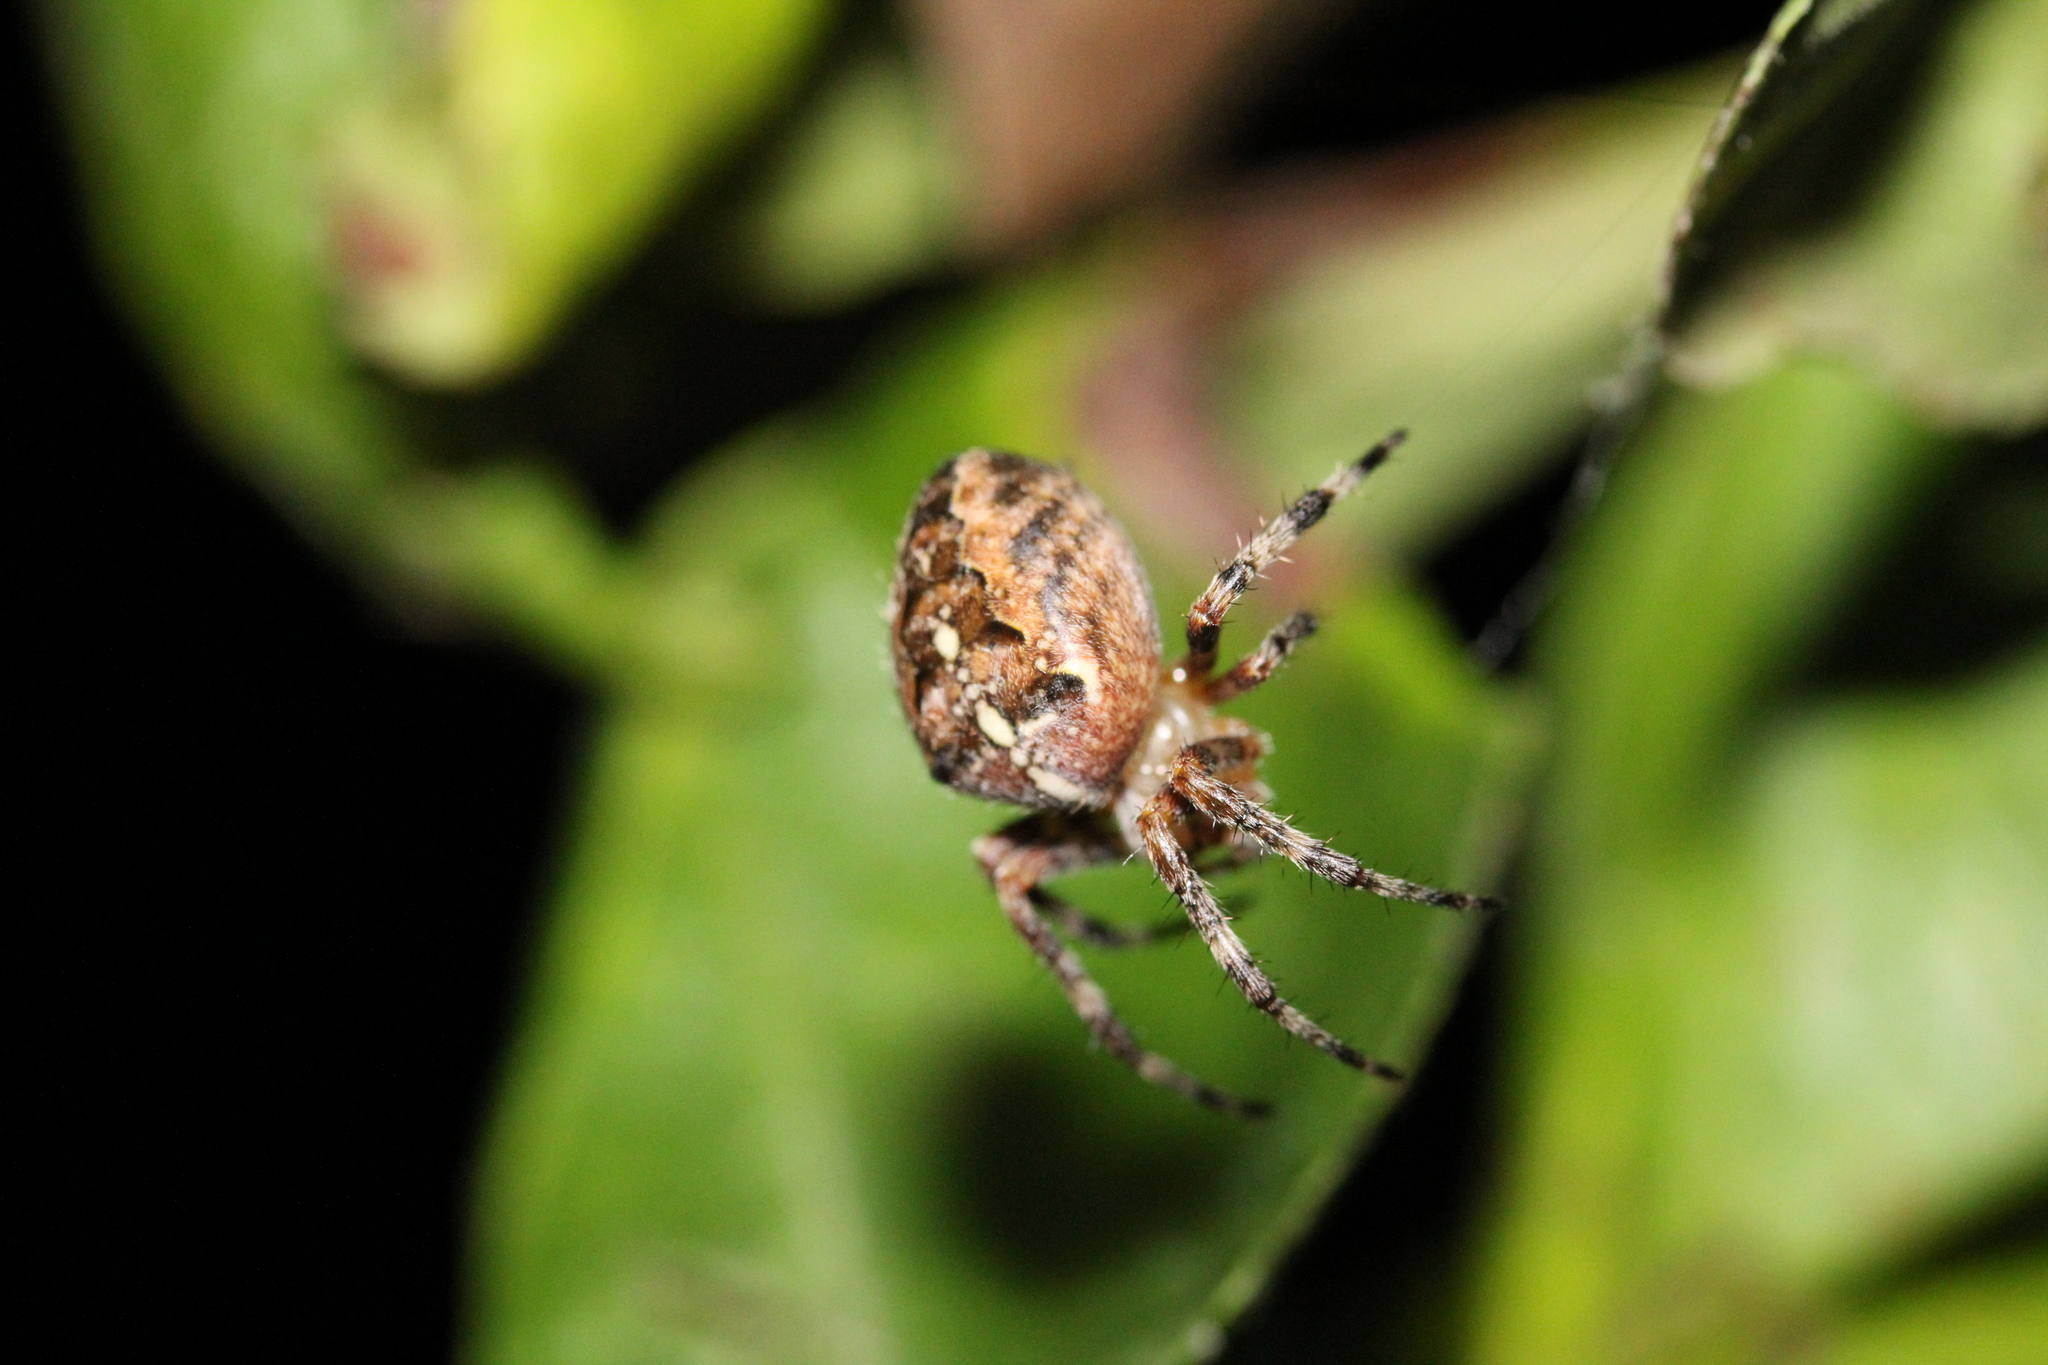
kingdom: Animalia
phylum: Arthropoda
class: Arachnida
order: Araneae
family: Araneidae
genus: Araneus
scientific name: Araneus diadematus
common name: Cross orbweaver
